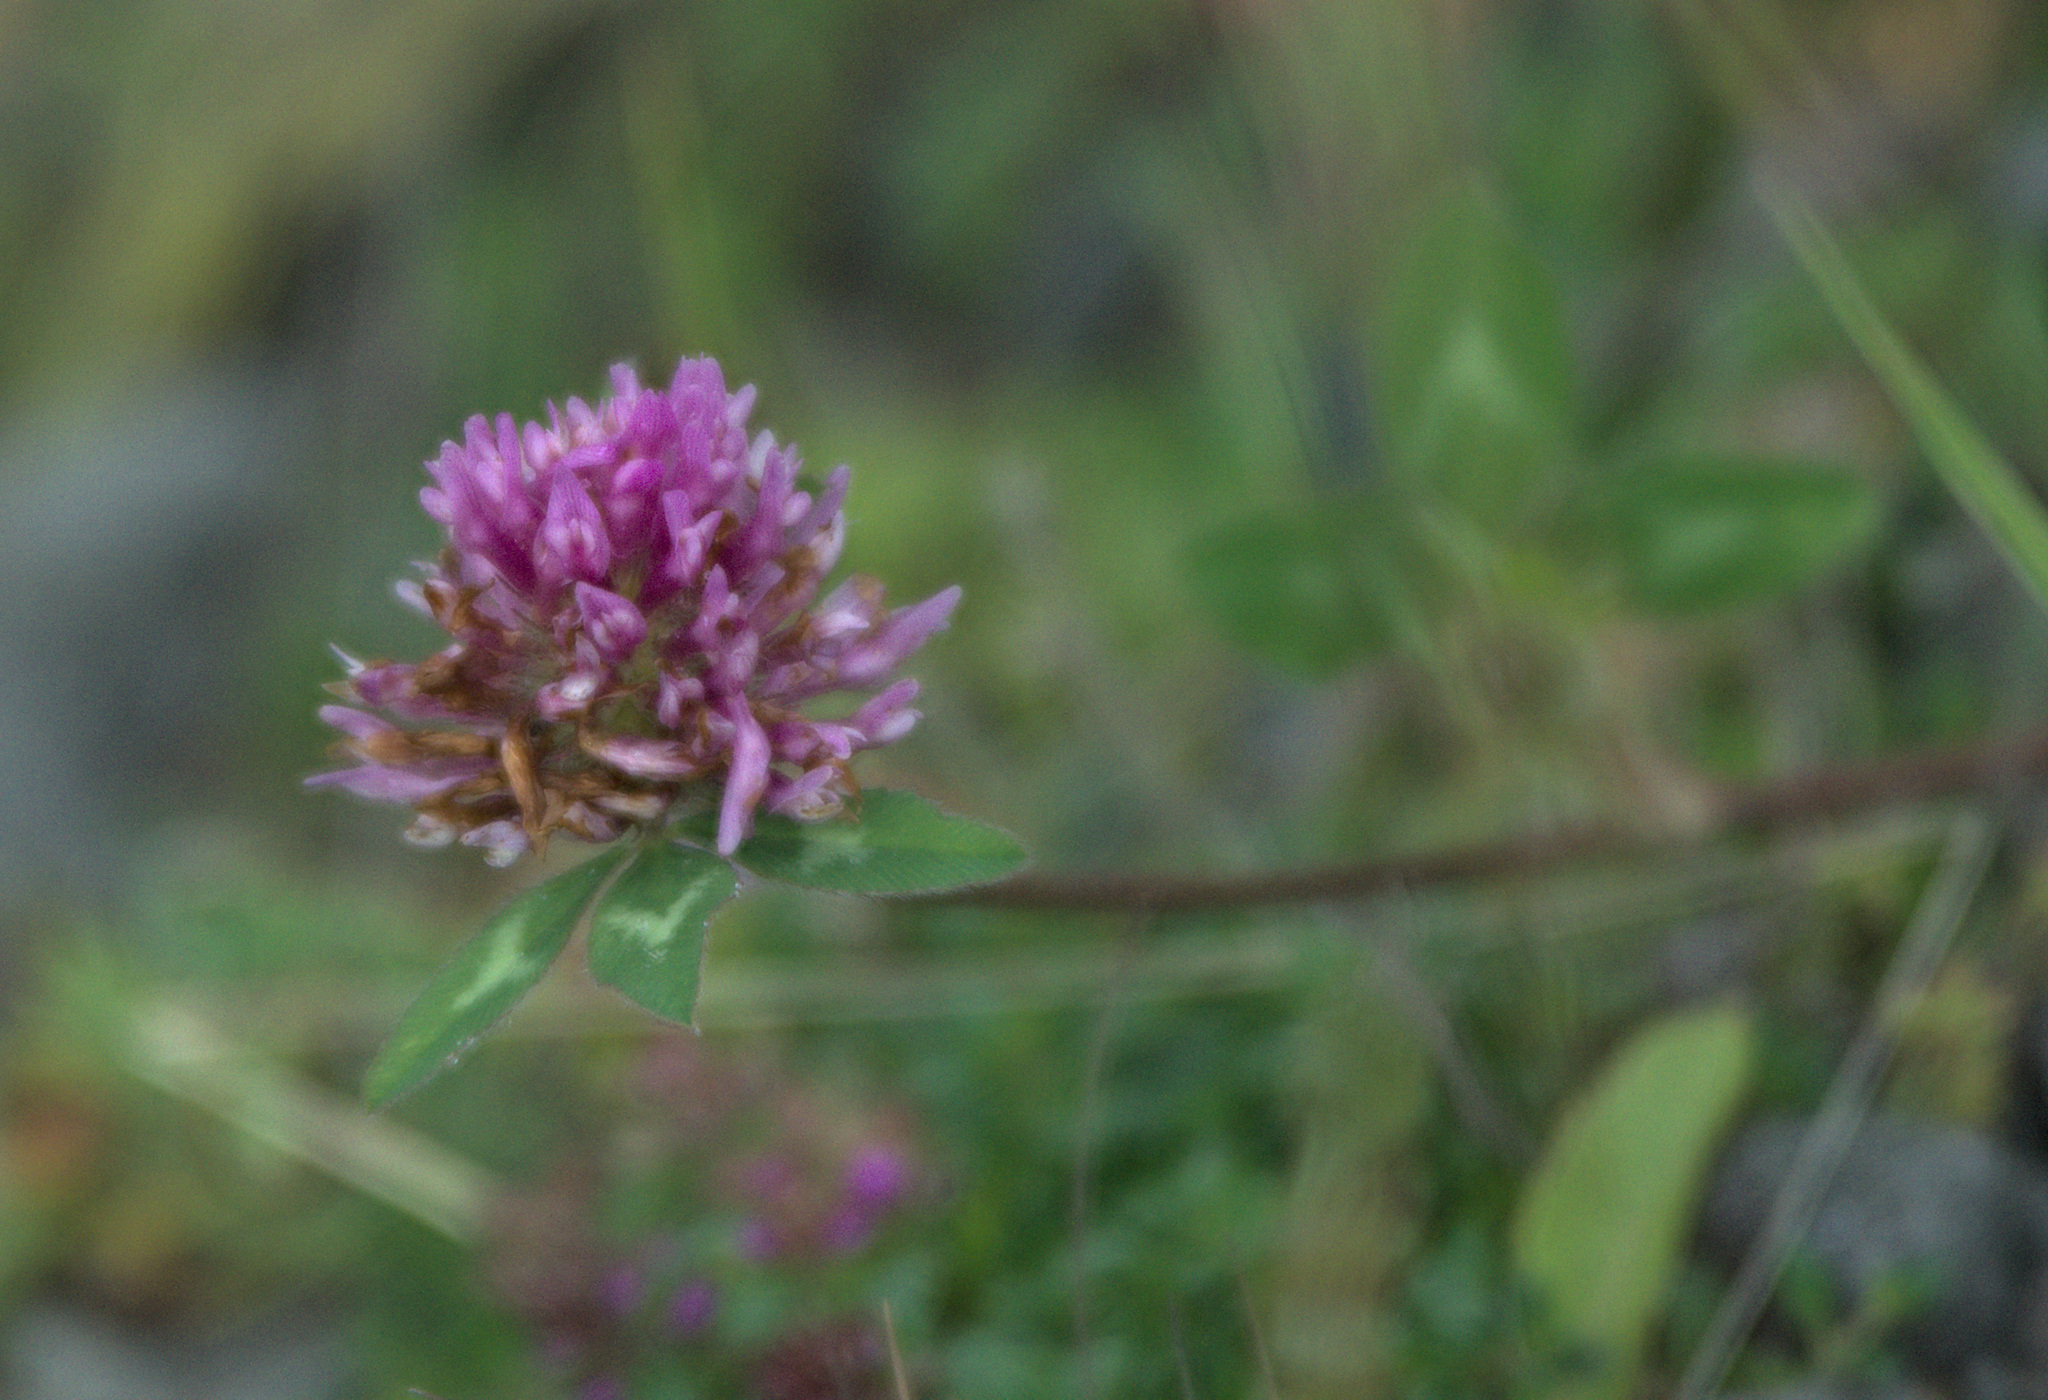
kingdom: Plantae
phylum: Tracheophyta
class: Magnoliopsida
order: Fabales
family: Fabaceae
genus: Trifolium
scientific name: Trifolium pratense
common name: Red clover
